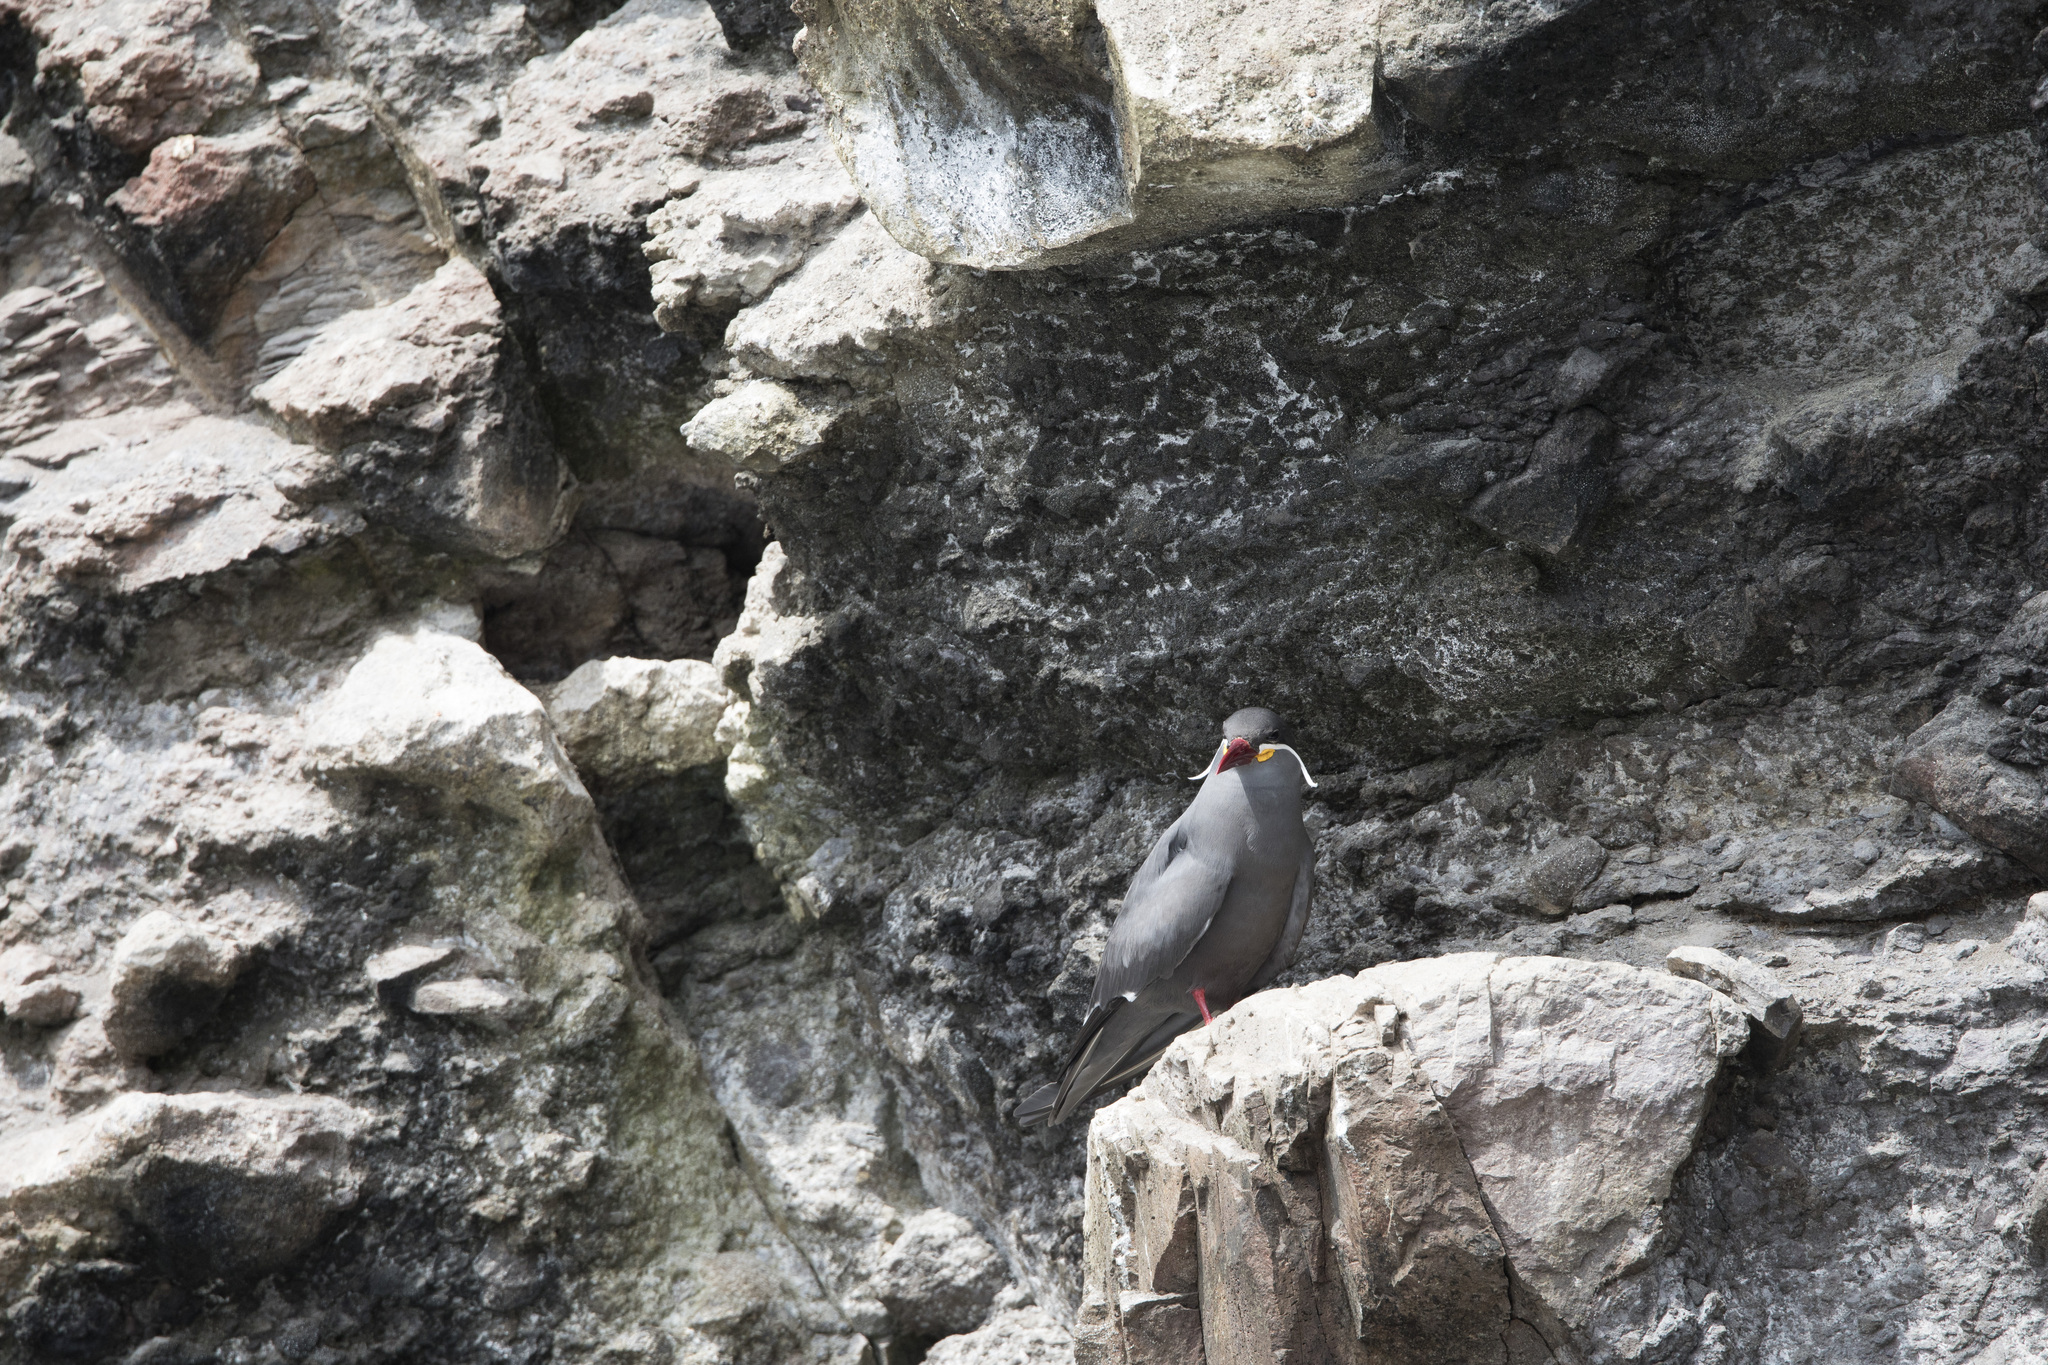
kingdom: Animalia
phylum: Chordata
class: Aves
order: Charadriiformes
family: Laridae
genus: Larosterna
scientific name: Larosterna inca
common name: Inca tern
